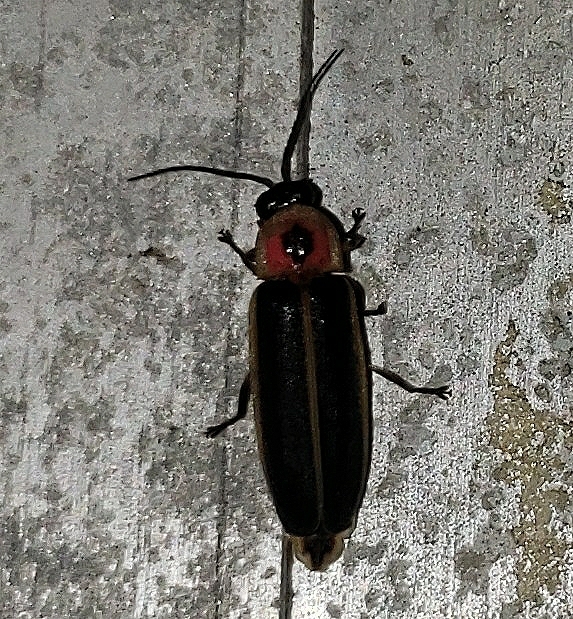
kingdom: Animalia
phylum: Arthropoda
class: Insecta
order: Coleoptera
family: Lampyridae
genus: Photinus
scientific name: Photinus pyralis
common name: Big dipper firefly
